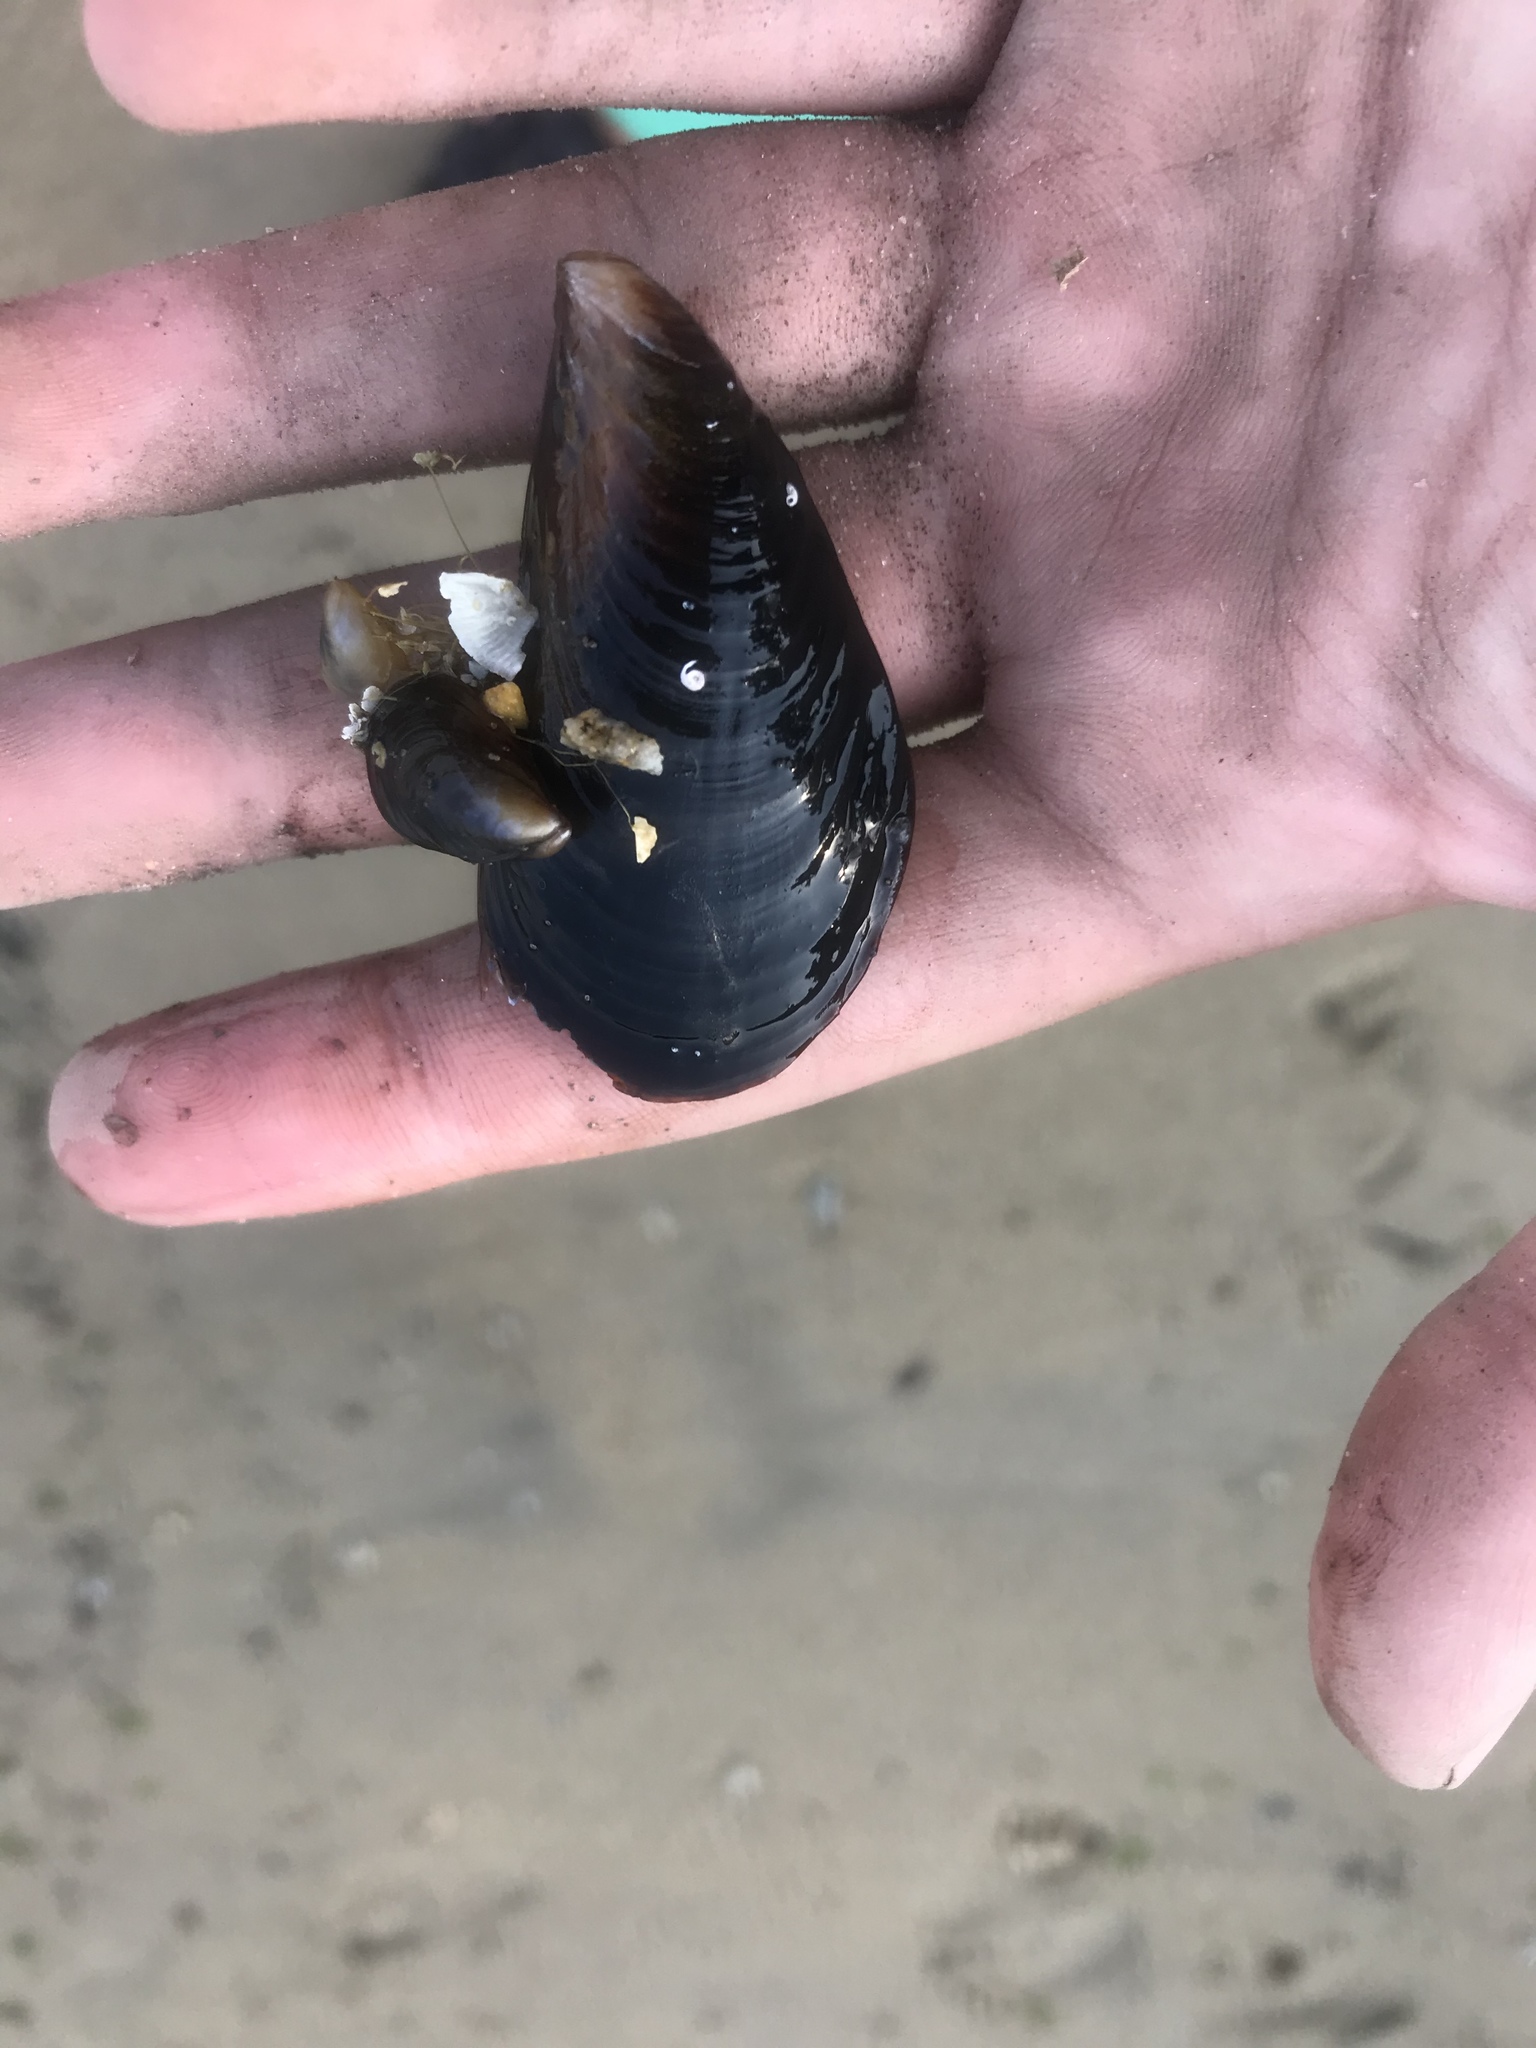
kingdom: Animalia
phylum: Mollusca
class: Bivalvia
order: Mytilida
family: Mytilidae
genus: Mytilus
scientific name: Mytilus
